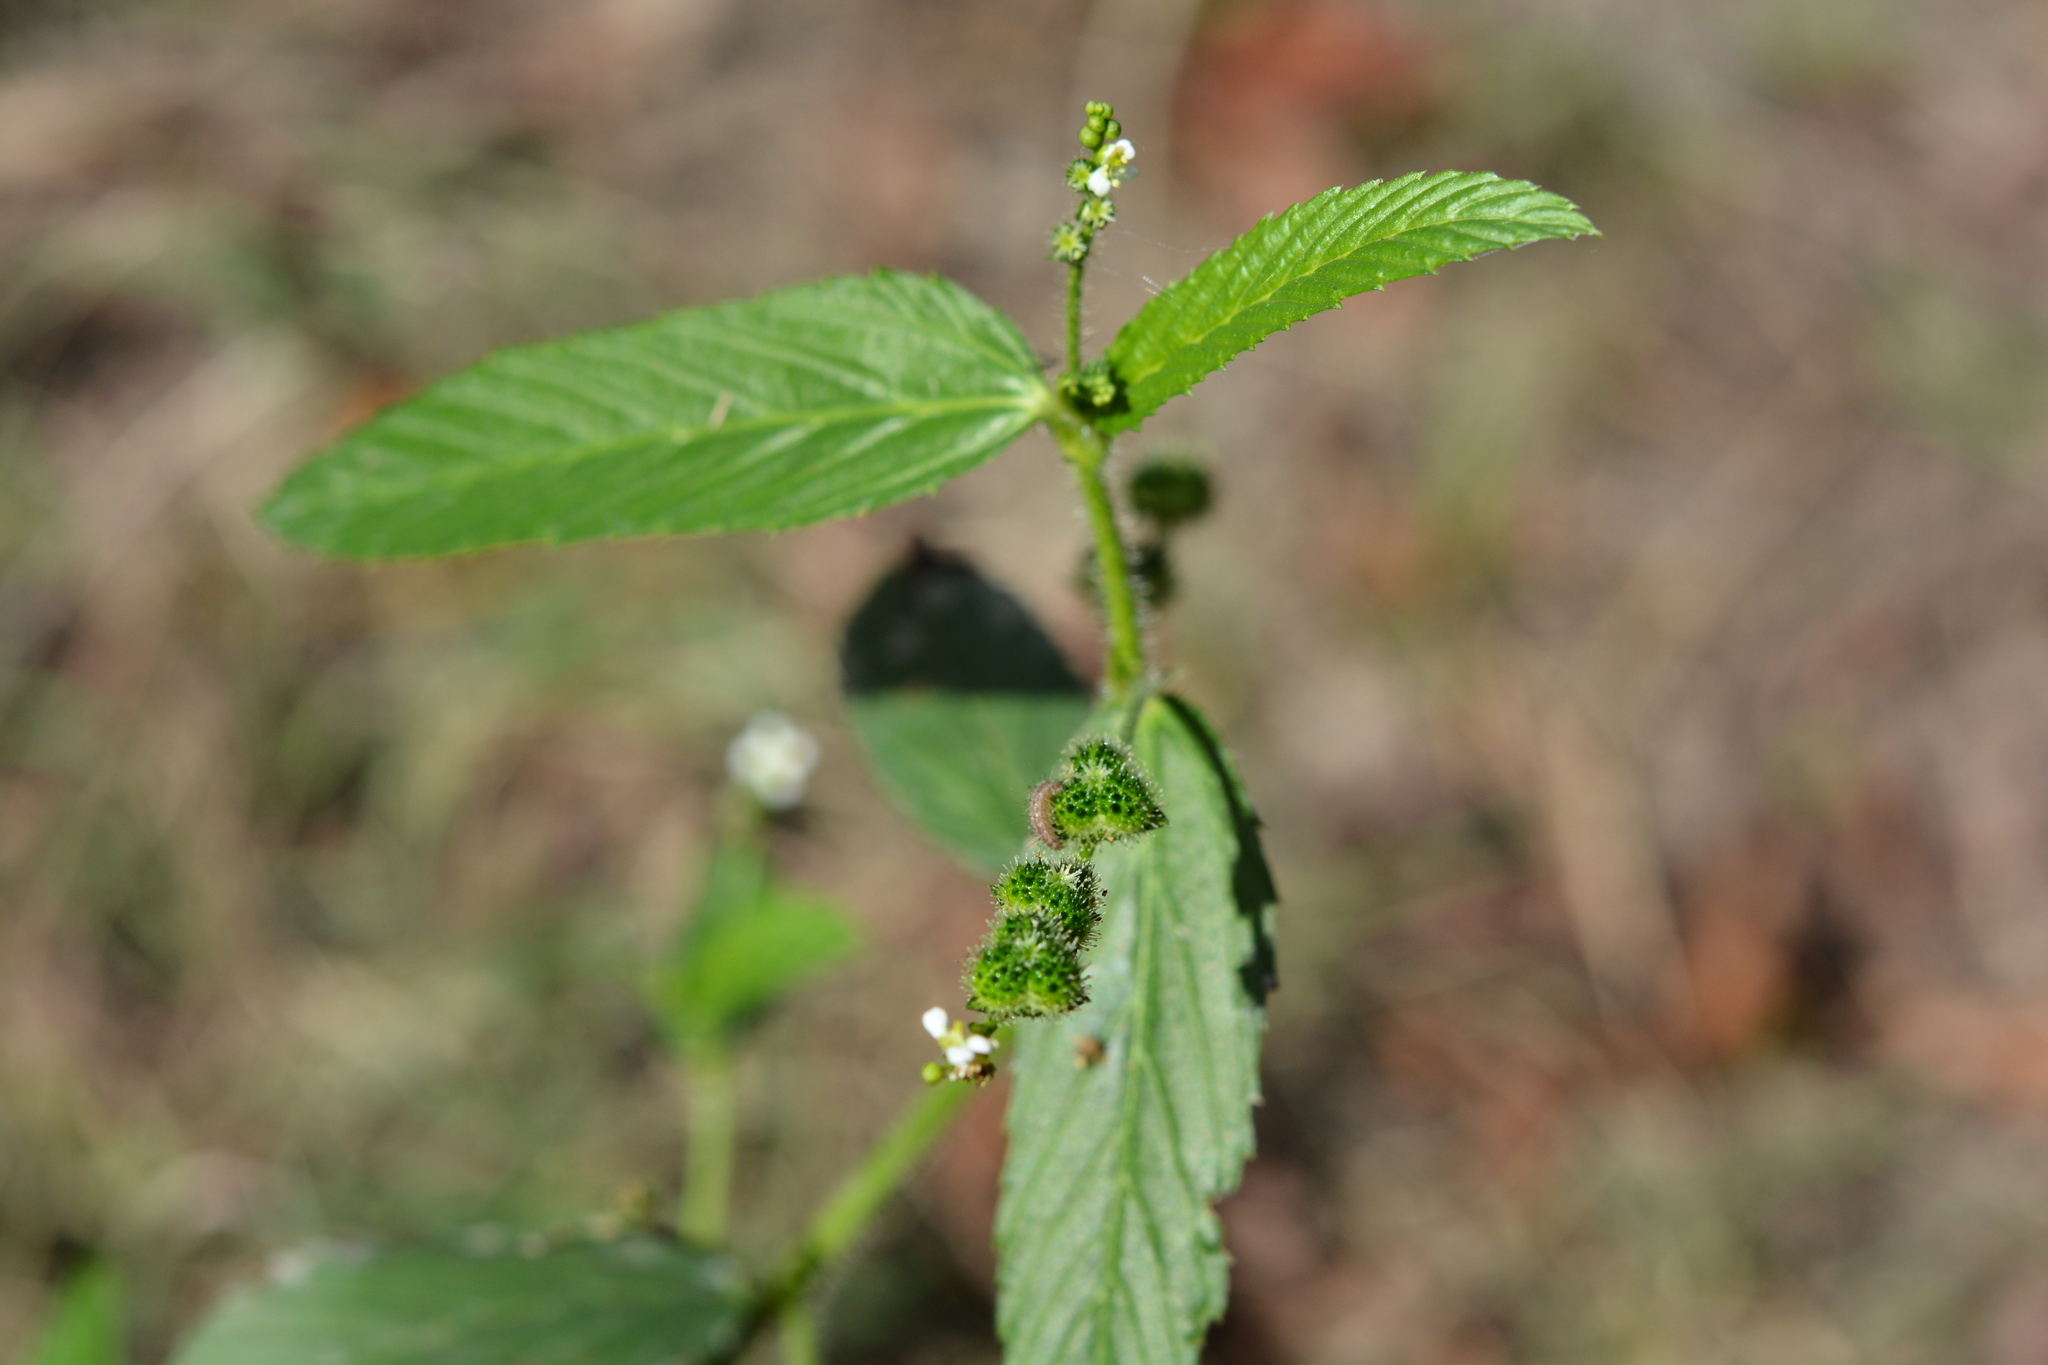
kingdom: Plantae
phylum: Tracheophyta
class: Magnoliopsida
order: Malpighiales
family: Euphorbiaceae
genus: Caperonia
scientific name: Caperonia palustris
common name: Sacatrapo
